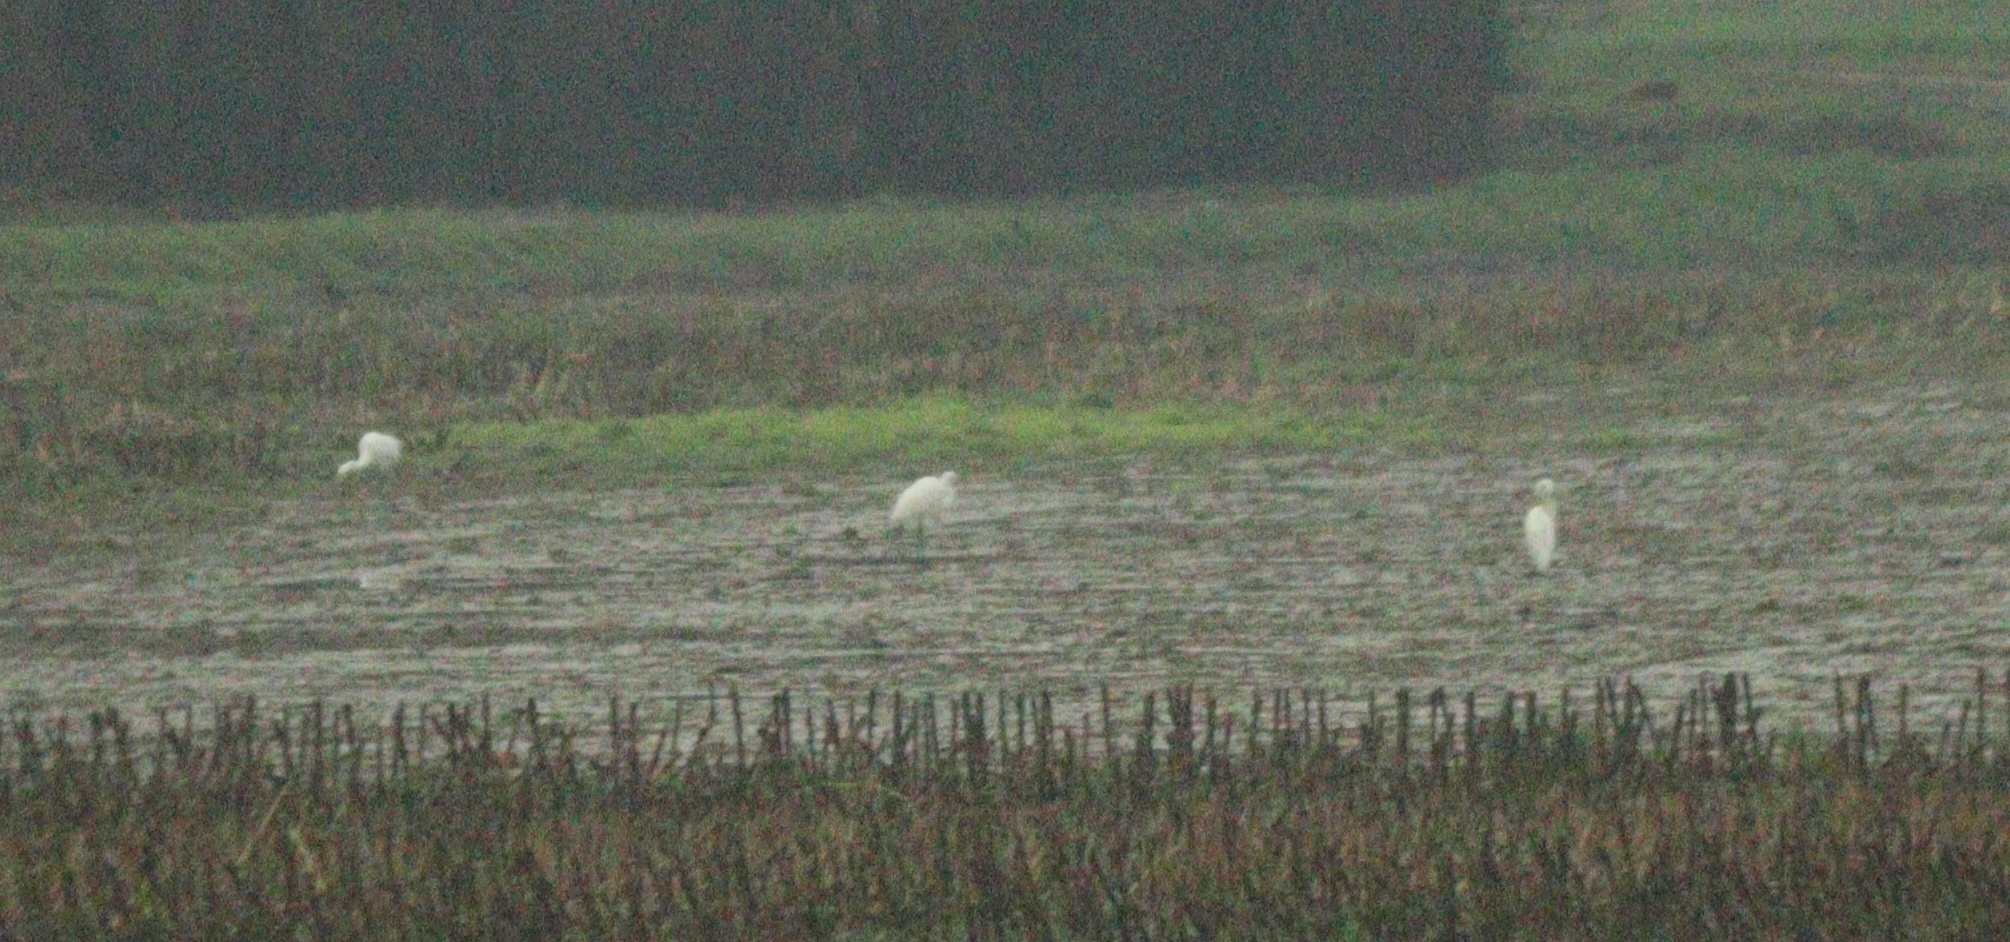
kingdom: Animalia
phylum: Chordata
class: Aves
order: Pelecaniformes
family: Ardeidae
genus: Egretta
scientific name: Egretta garzetta
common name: Little egret
